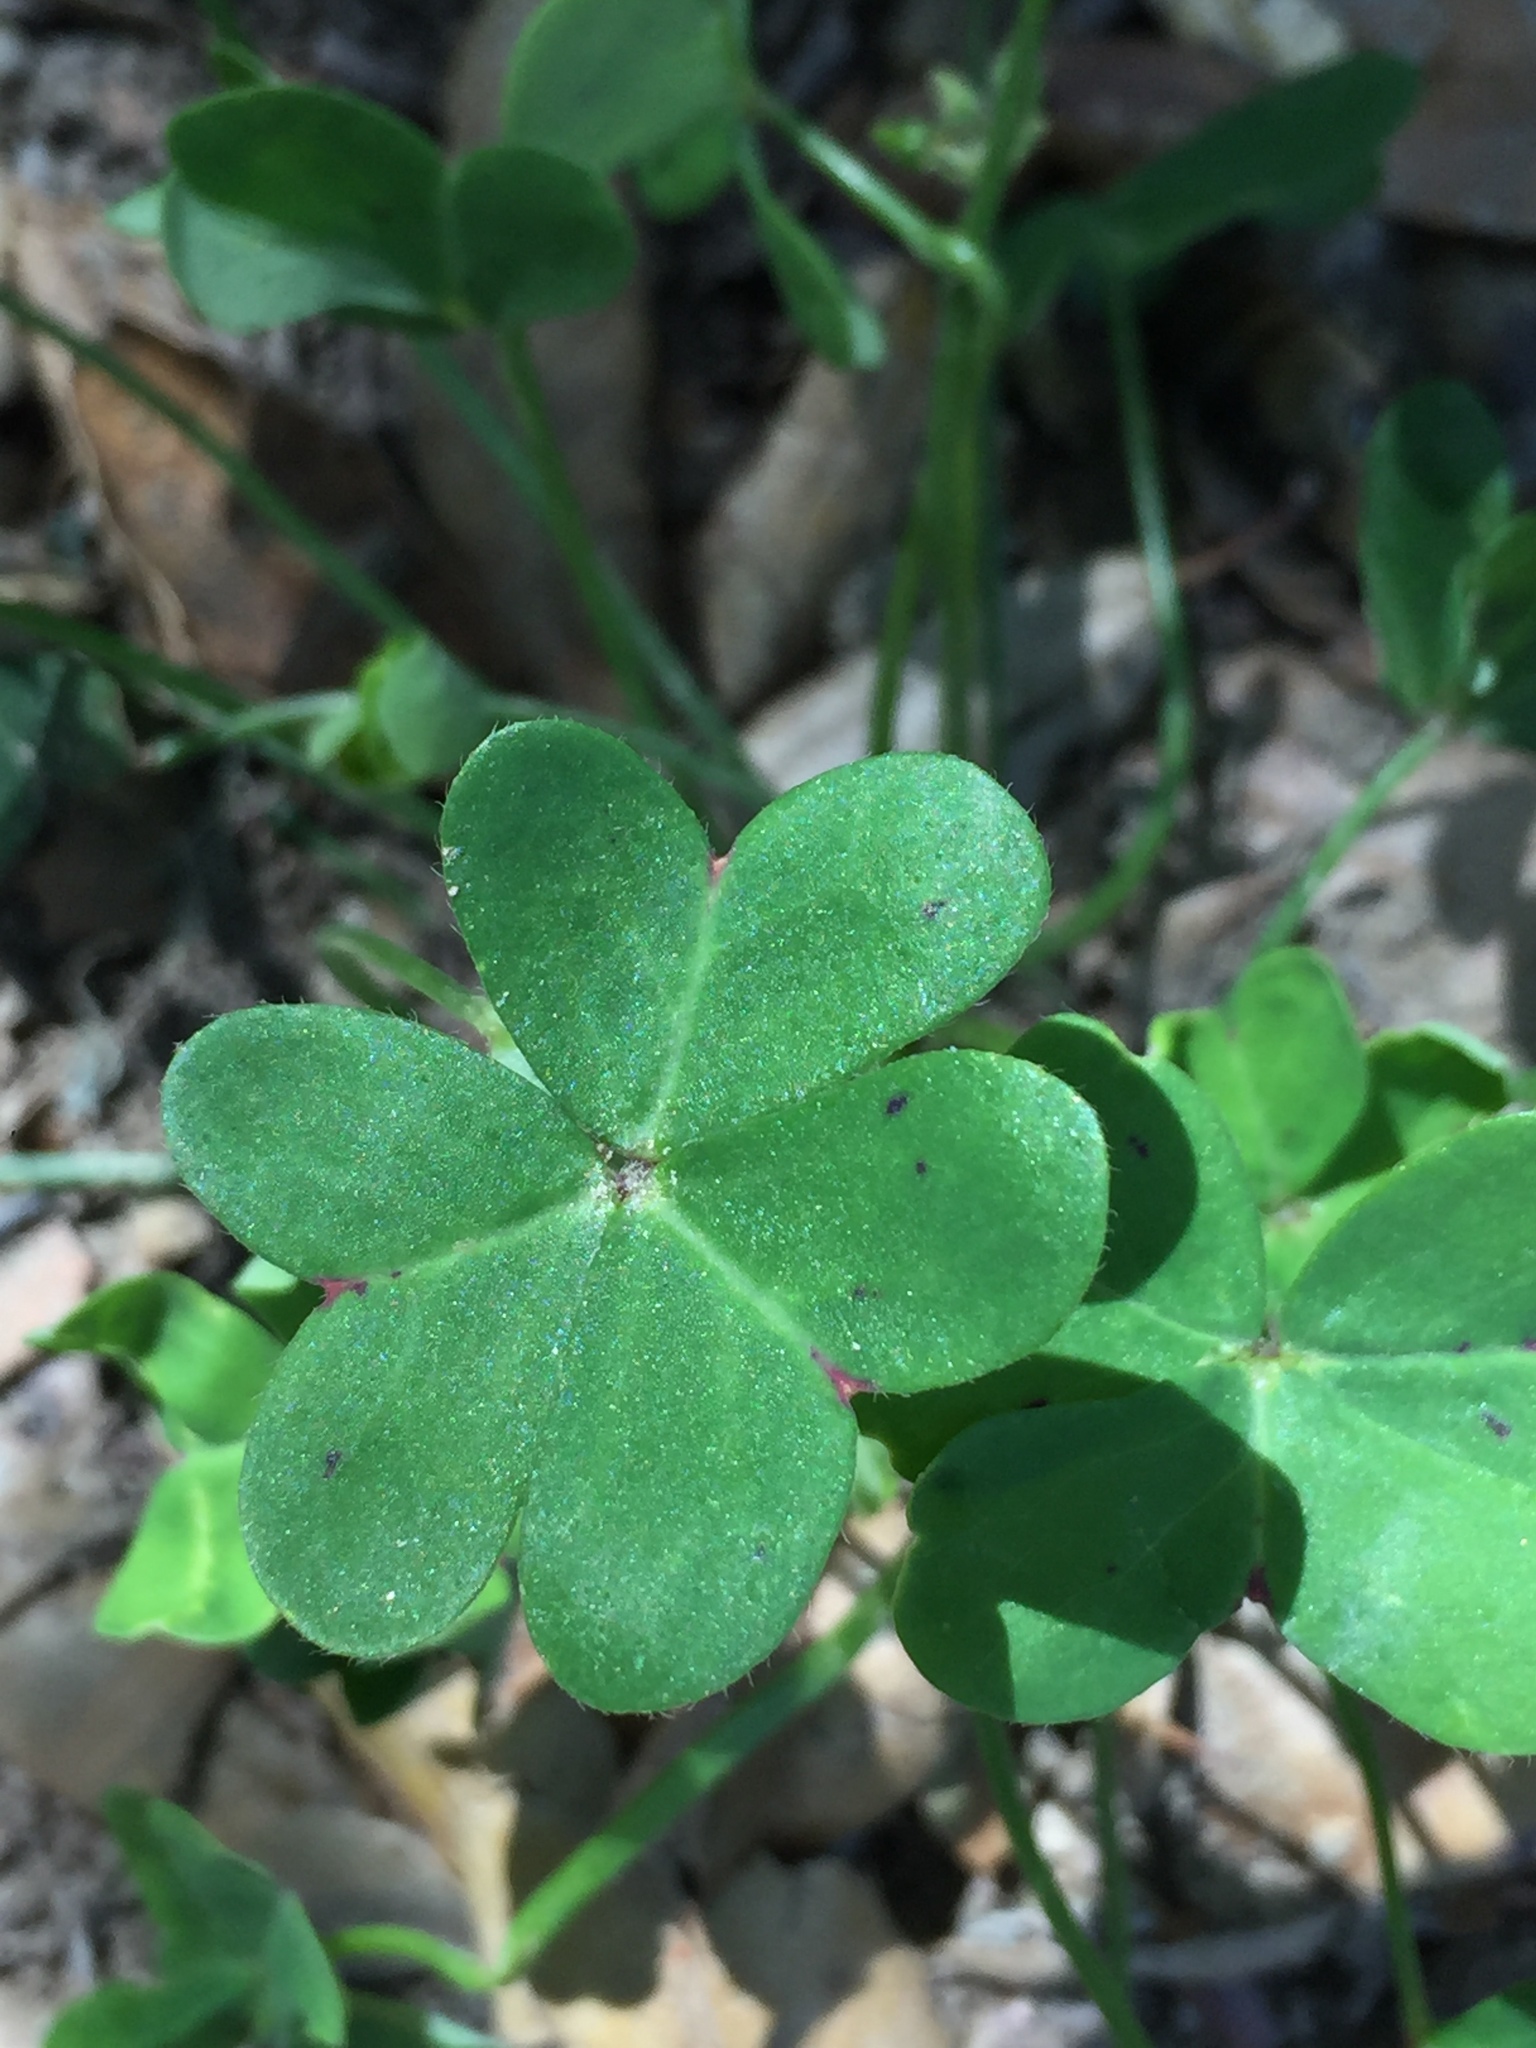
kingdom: Plantae
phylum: Tracheophyta
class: Magnoliopsida
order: Oxalidales
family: Oxalidaceae
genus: Oxalis
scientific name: Oxalis pes-caprae
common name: Bermuda-buttercup
